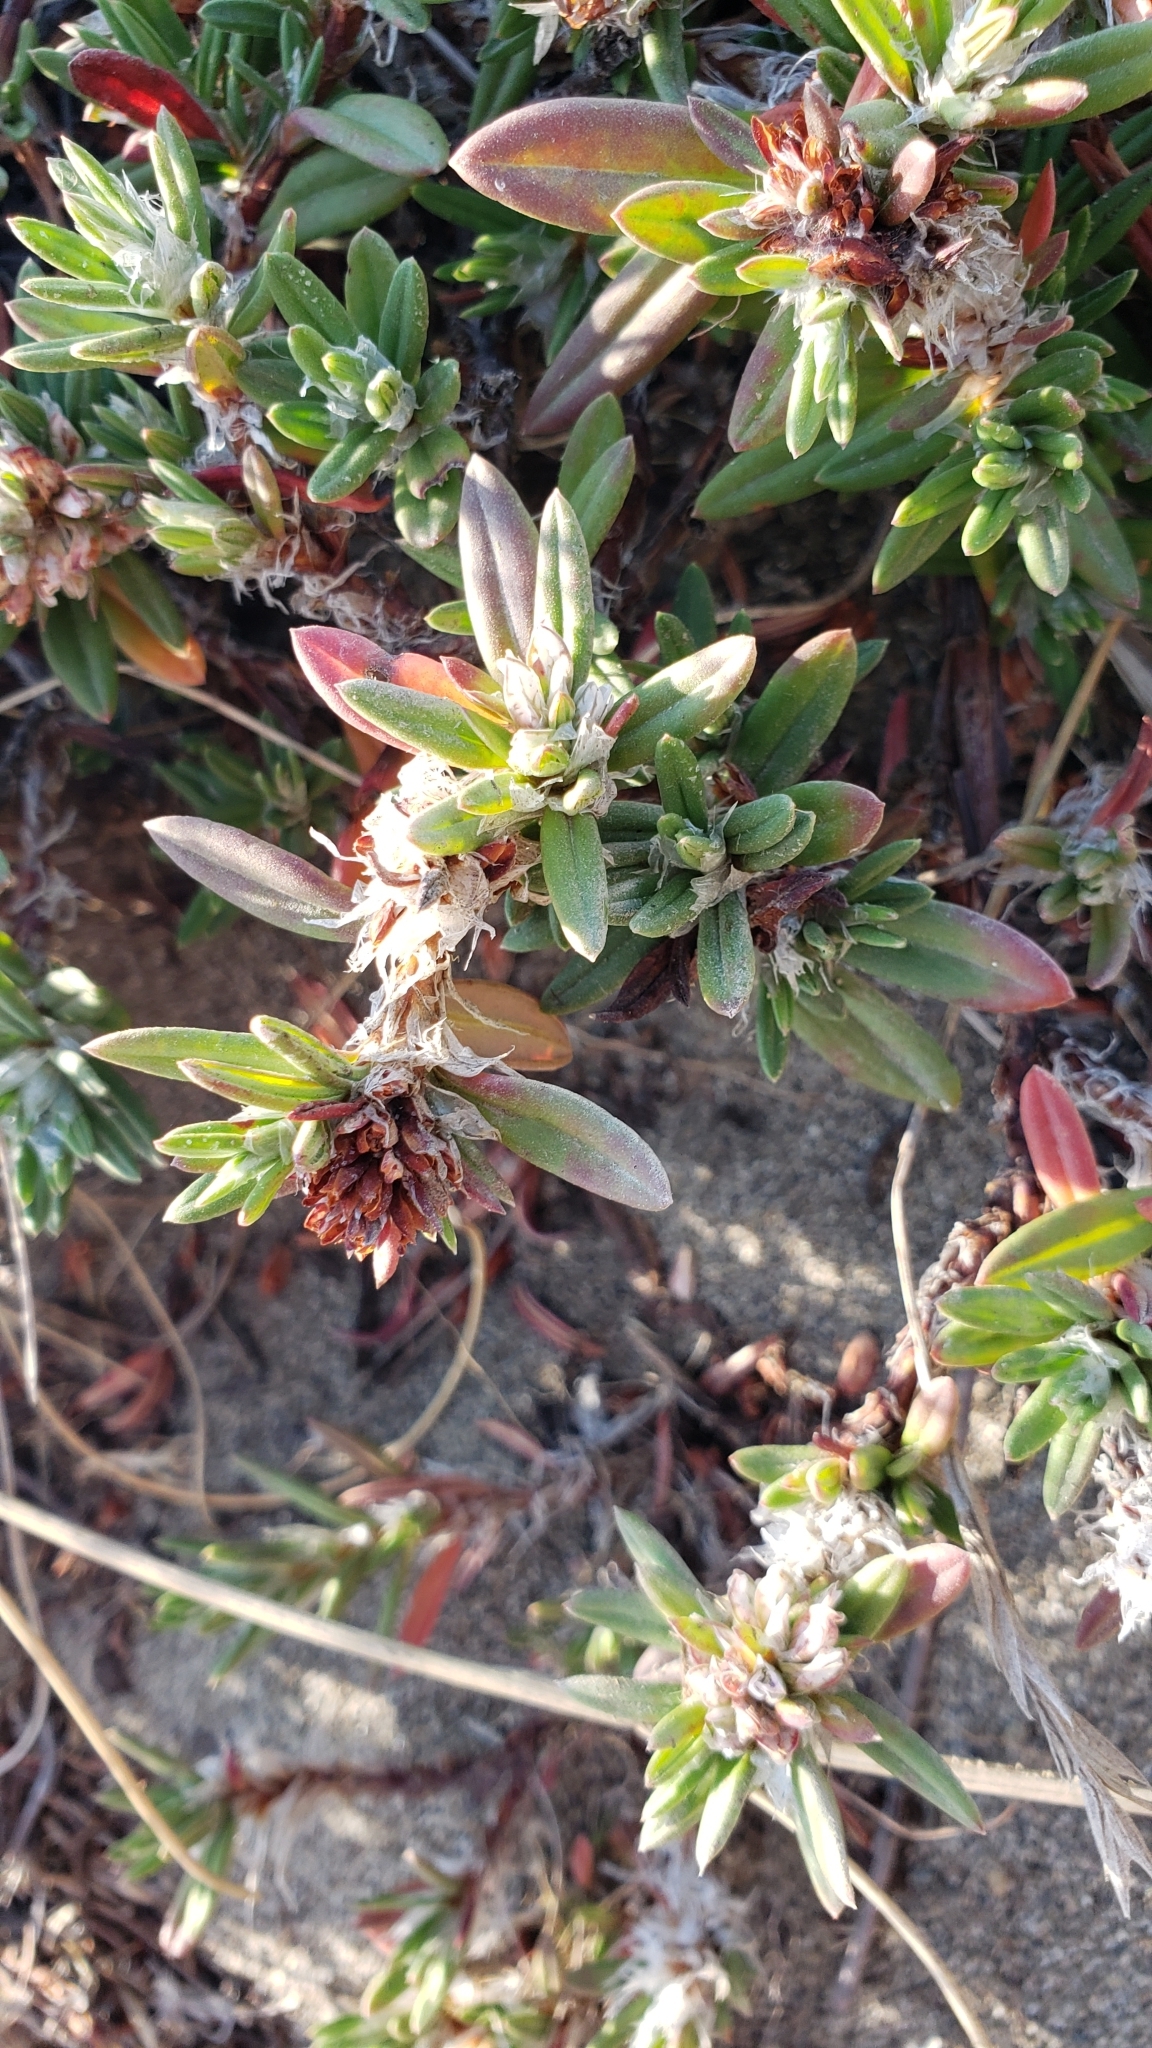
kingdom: Plantae
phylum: Tracheophyta
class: Magnoliopsida
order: Caryophyllales
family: Polygonaceae
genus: Polygonum
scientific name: Polygonum paronychia
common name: Dune knotweed
